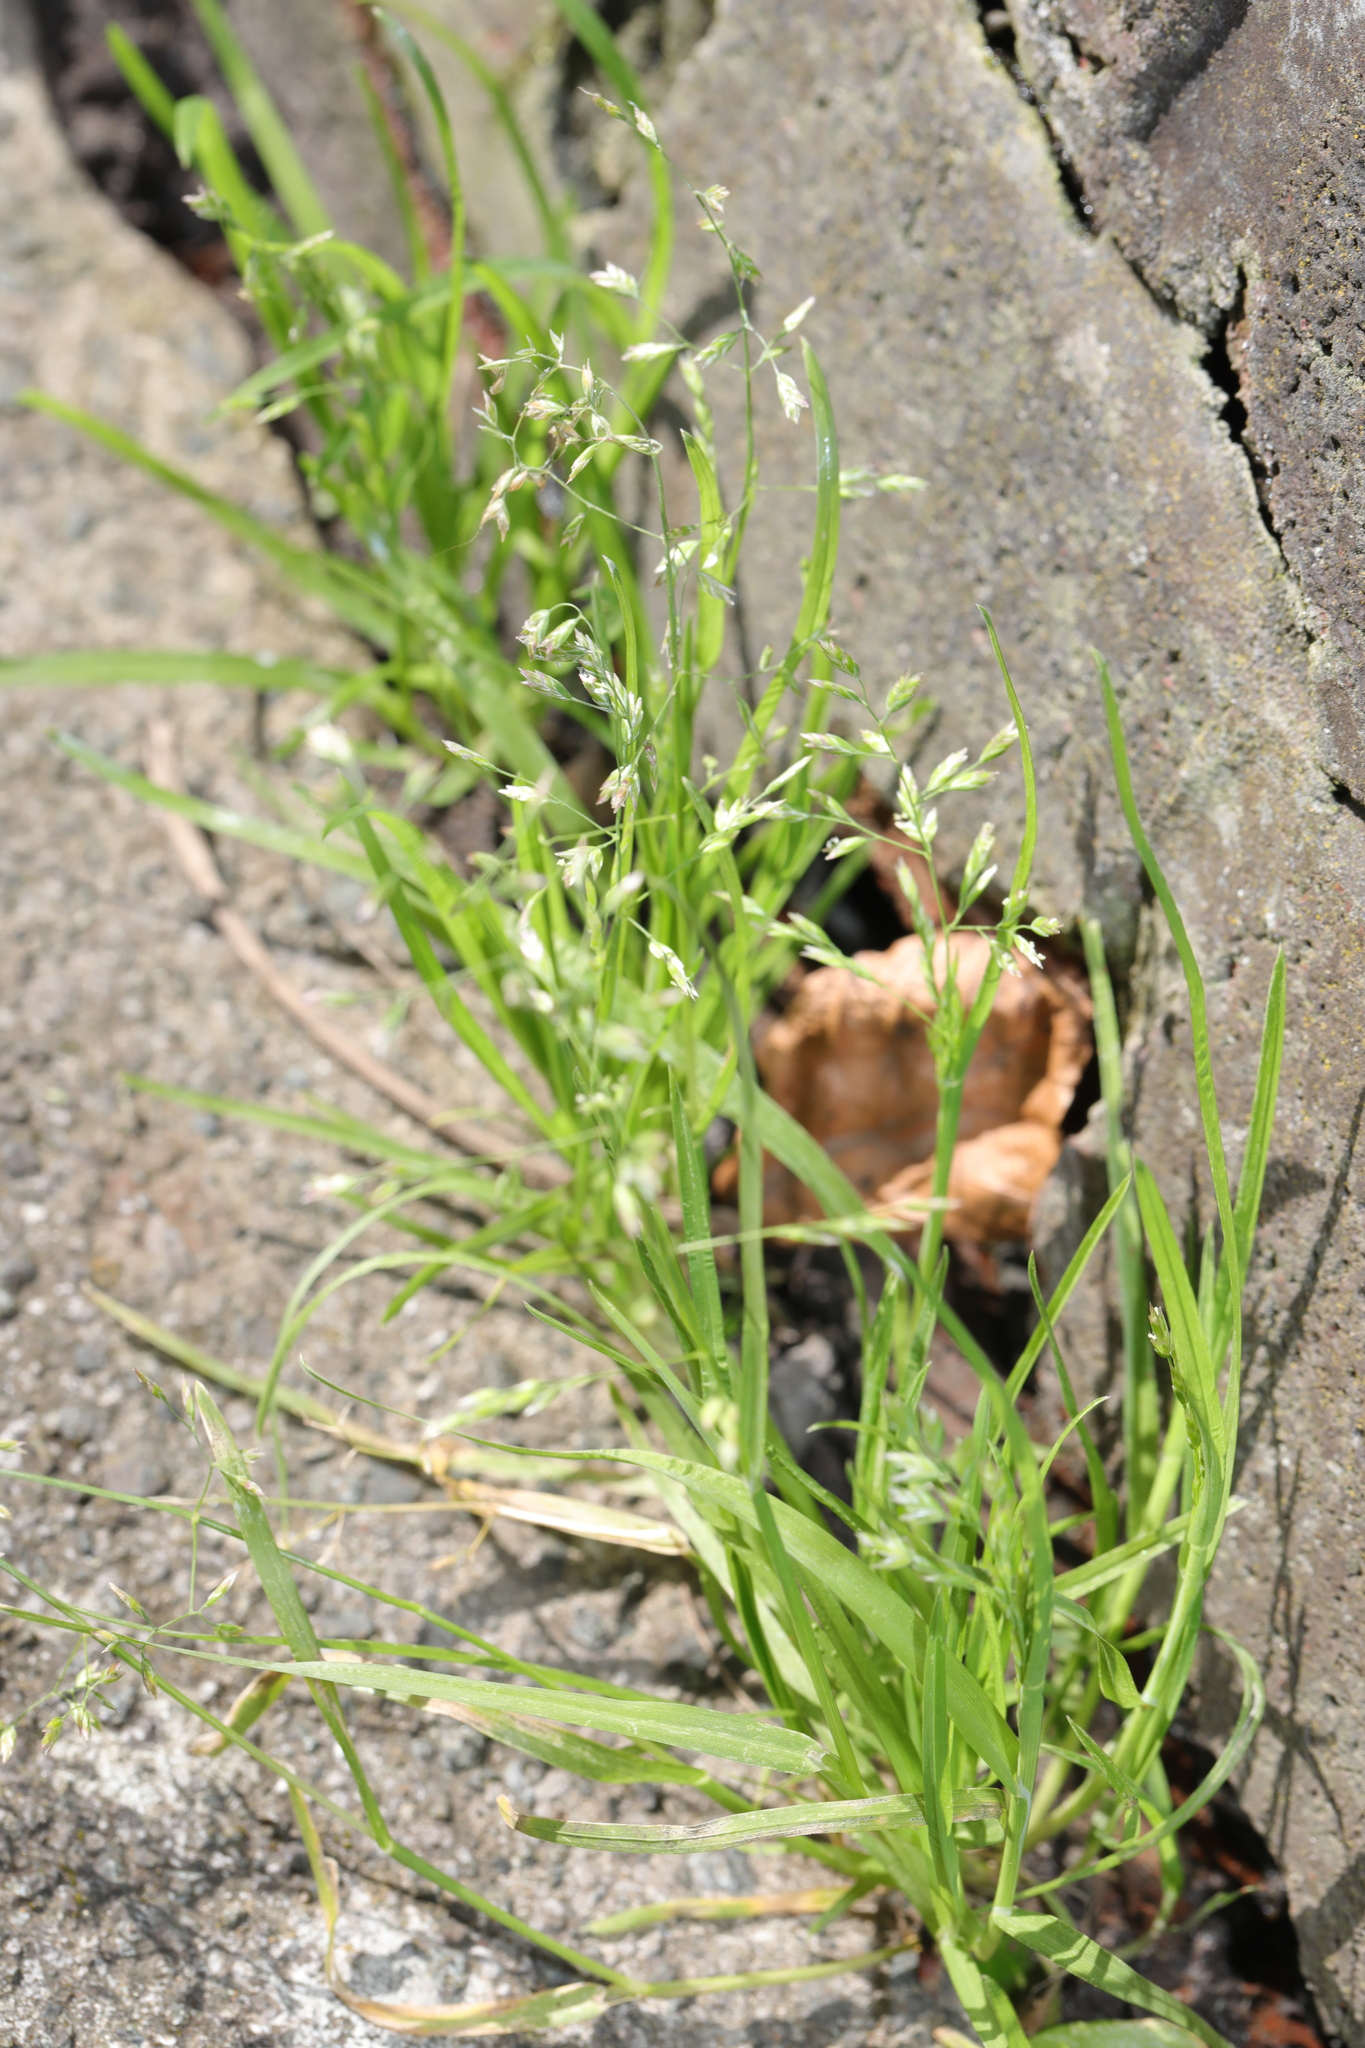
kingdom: Plantae
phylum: Tracheophyta
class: Liliopsida
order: Poales
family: Poaceae
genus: Poa
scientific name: Poa annua
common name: Annual bluegrass
